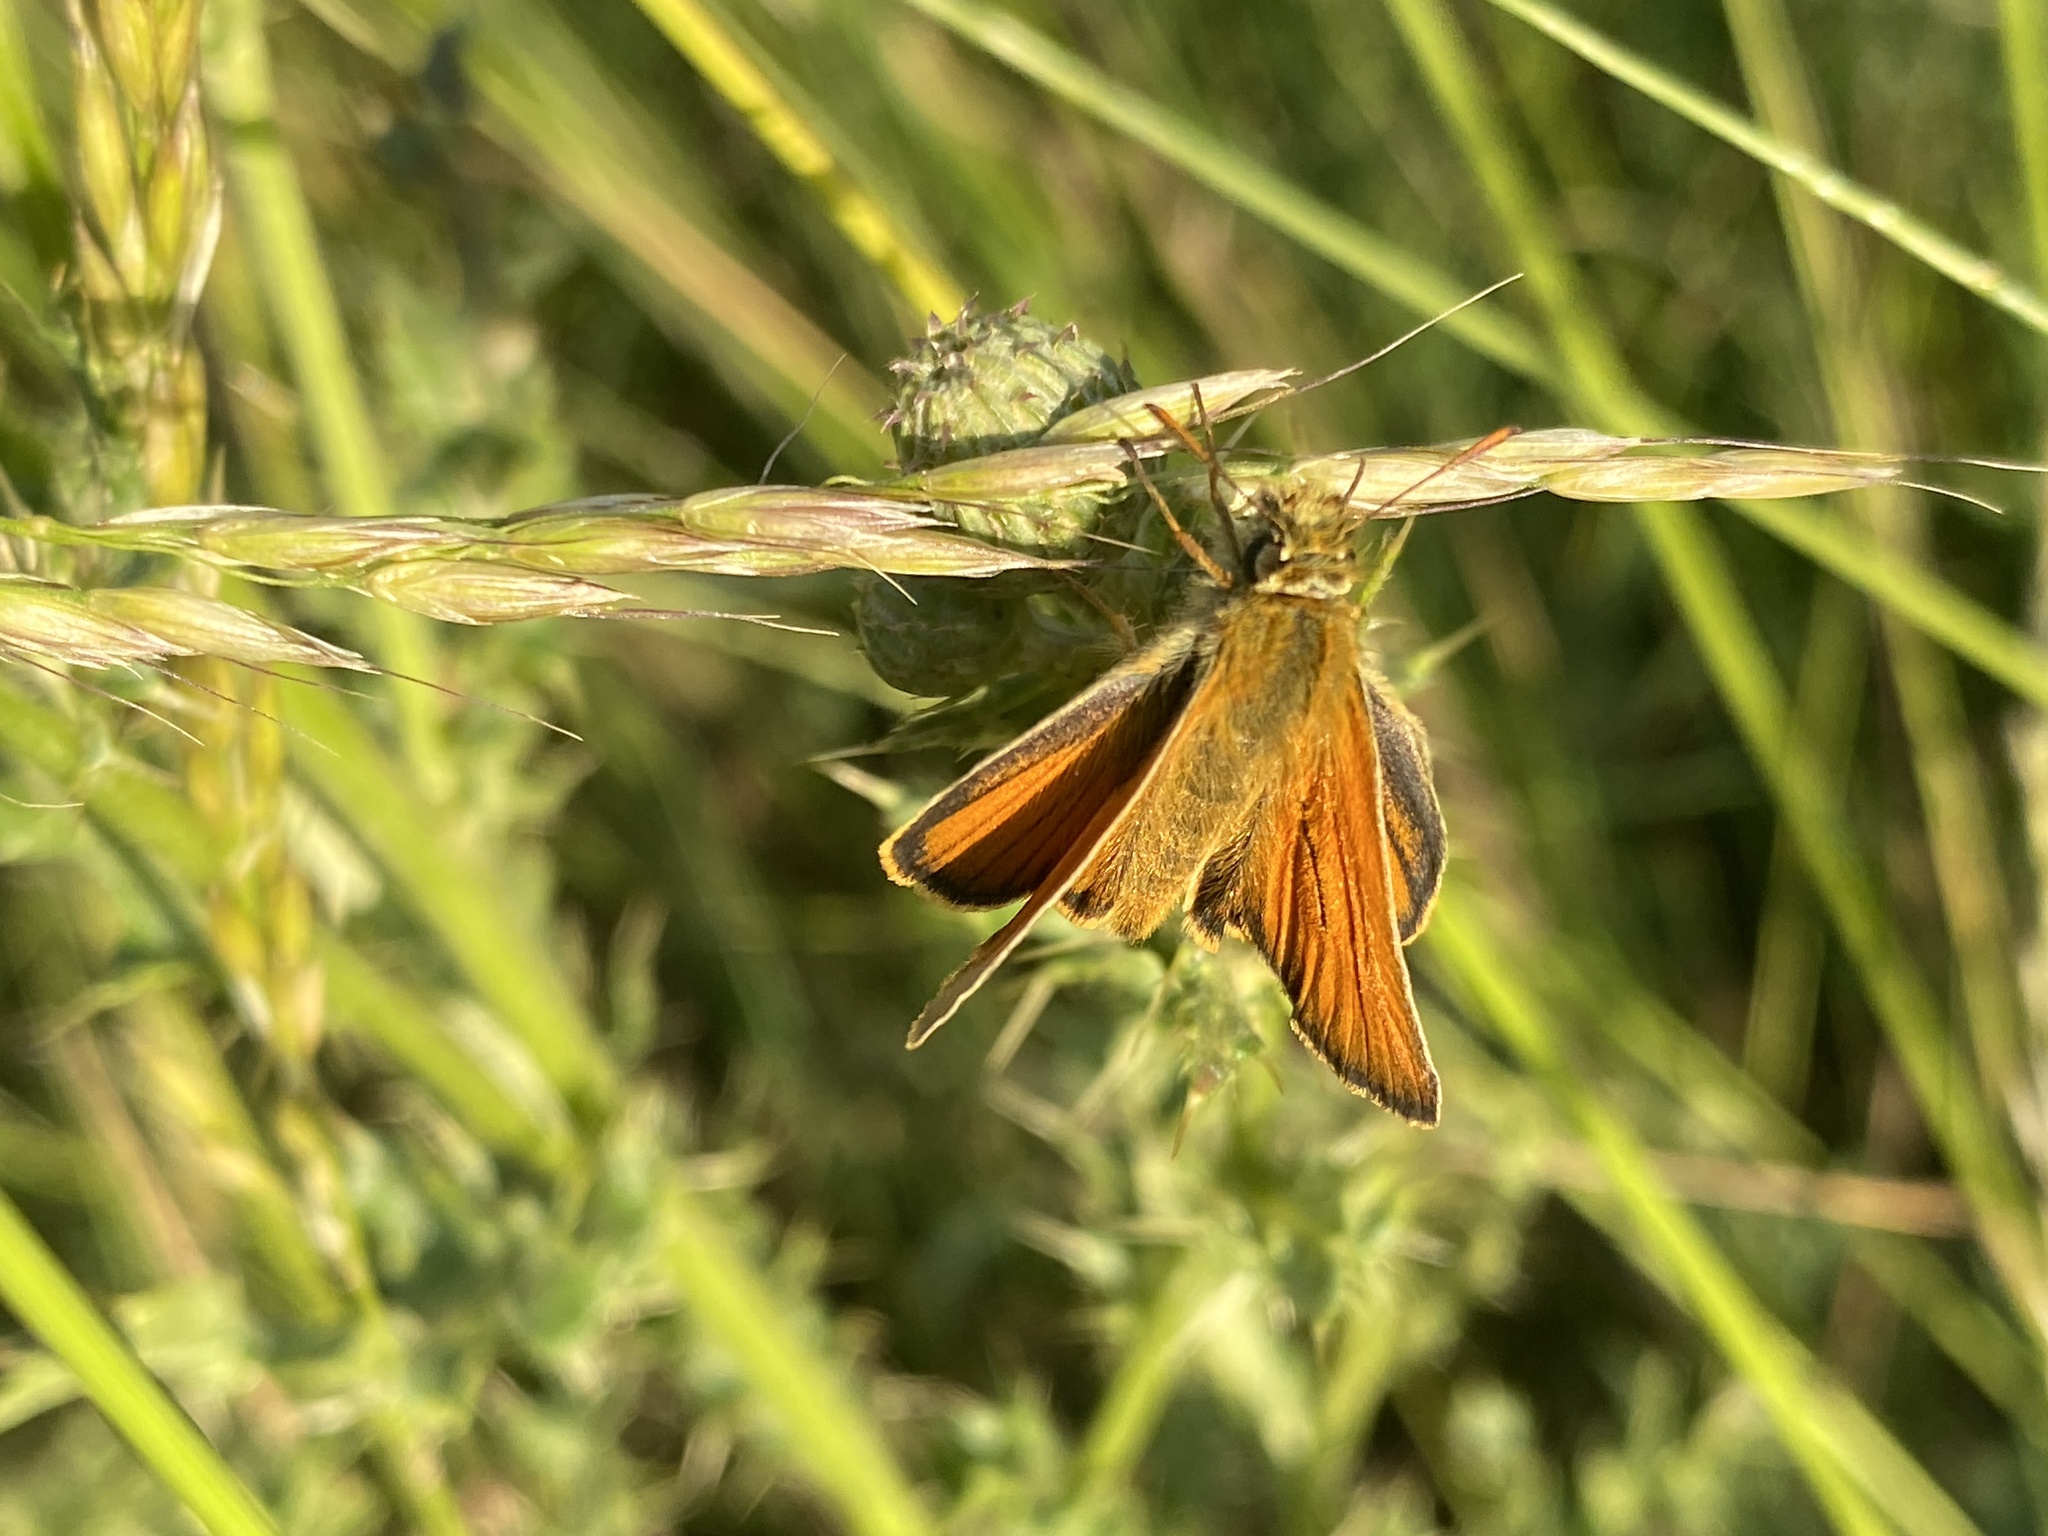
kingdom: Animalia
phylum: Arthropoda
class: Insecta
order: Lepidoptera
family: Hesperiidae
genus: Thymelicus
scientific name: Thymelicus sylvestris
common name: Small skipper
